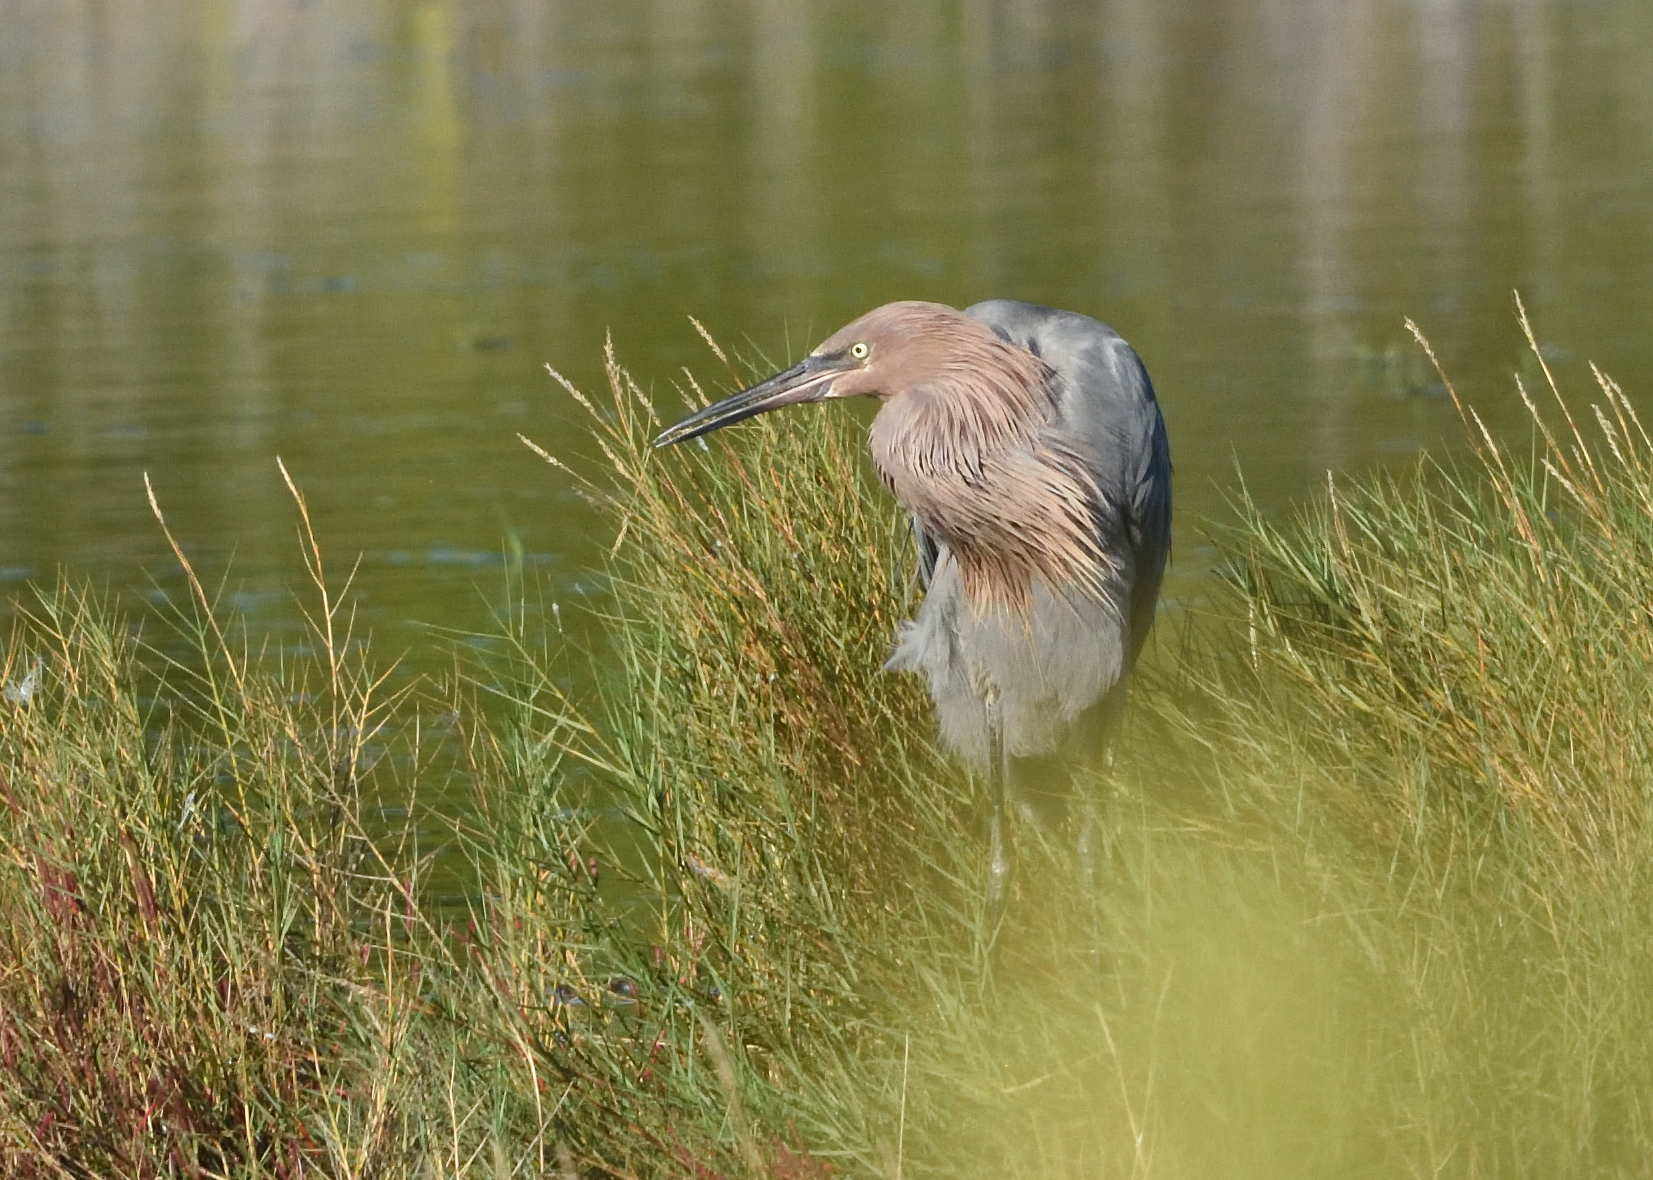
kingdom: Animalia
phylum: Chordata
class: Aves
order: Pelecaniformes
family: Ardeidae
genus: Egretta
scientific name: Egretta rufescens
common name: Reddish egret
